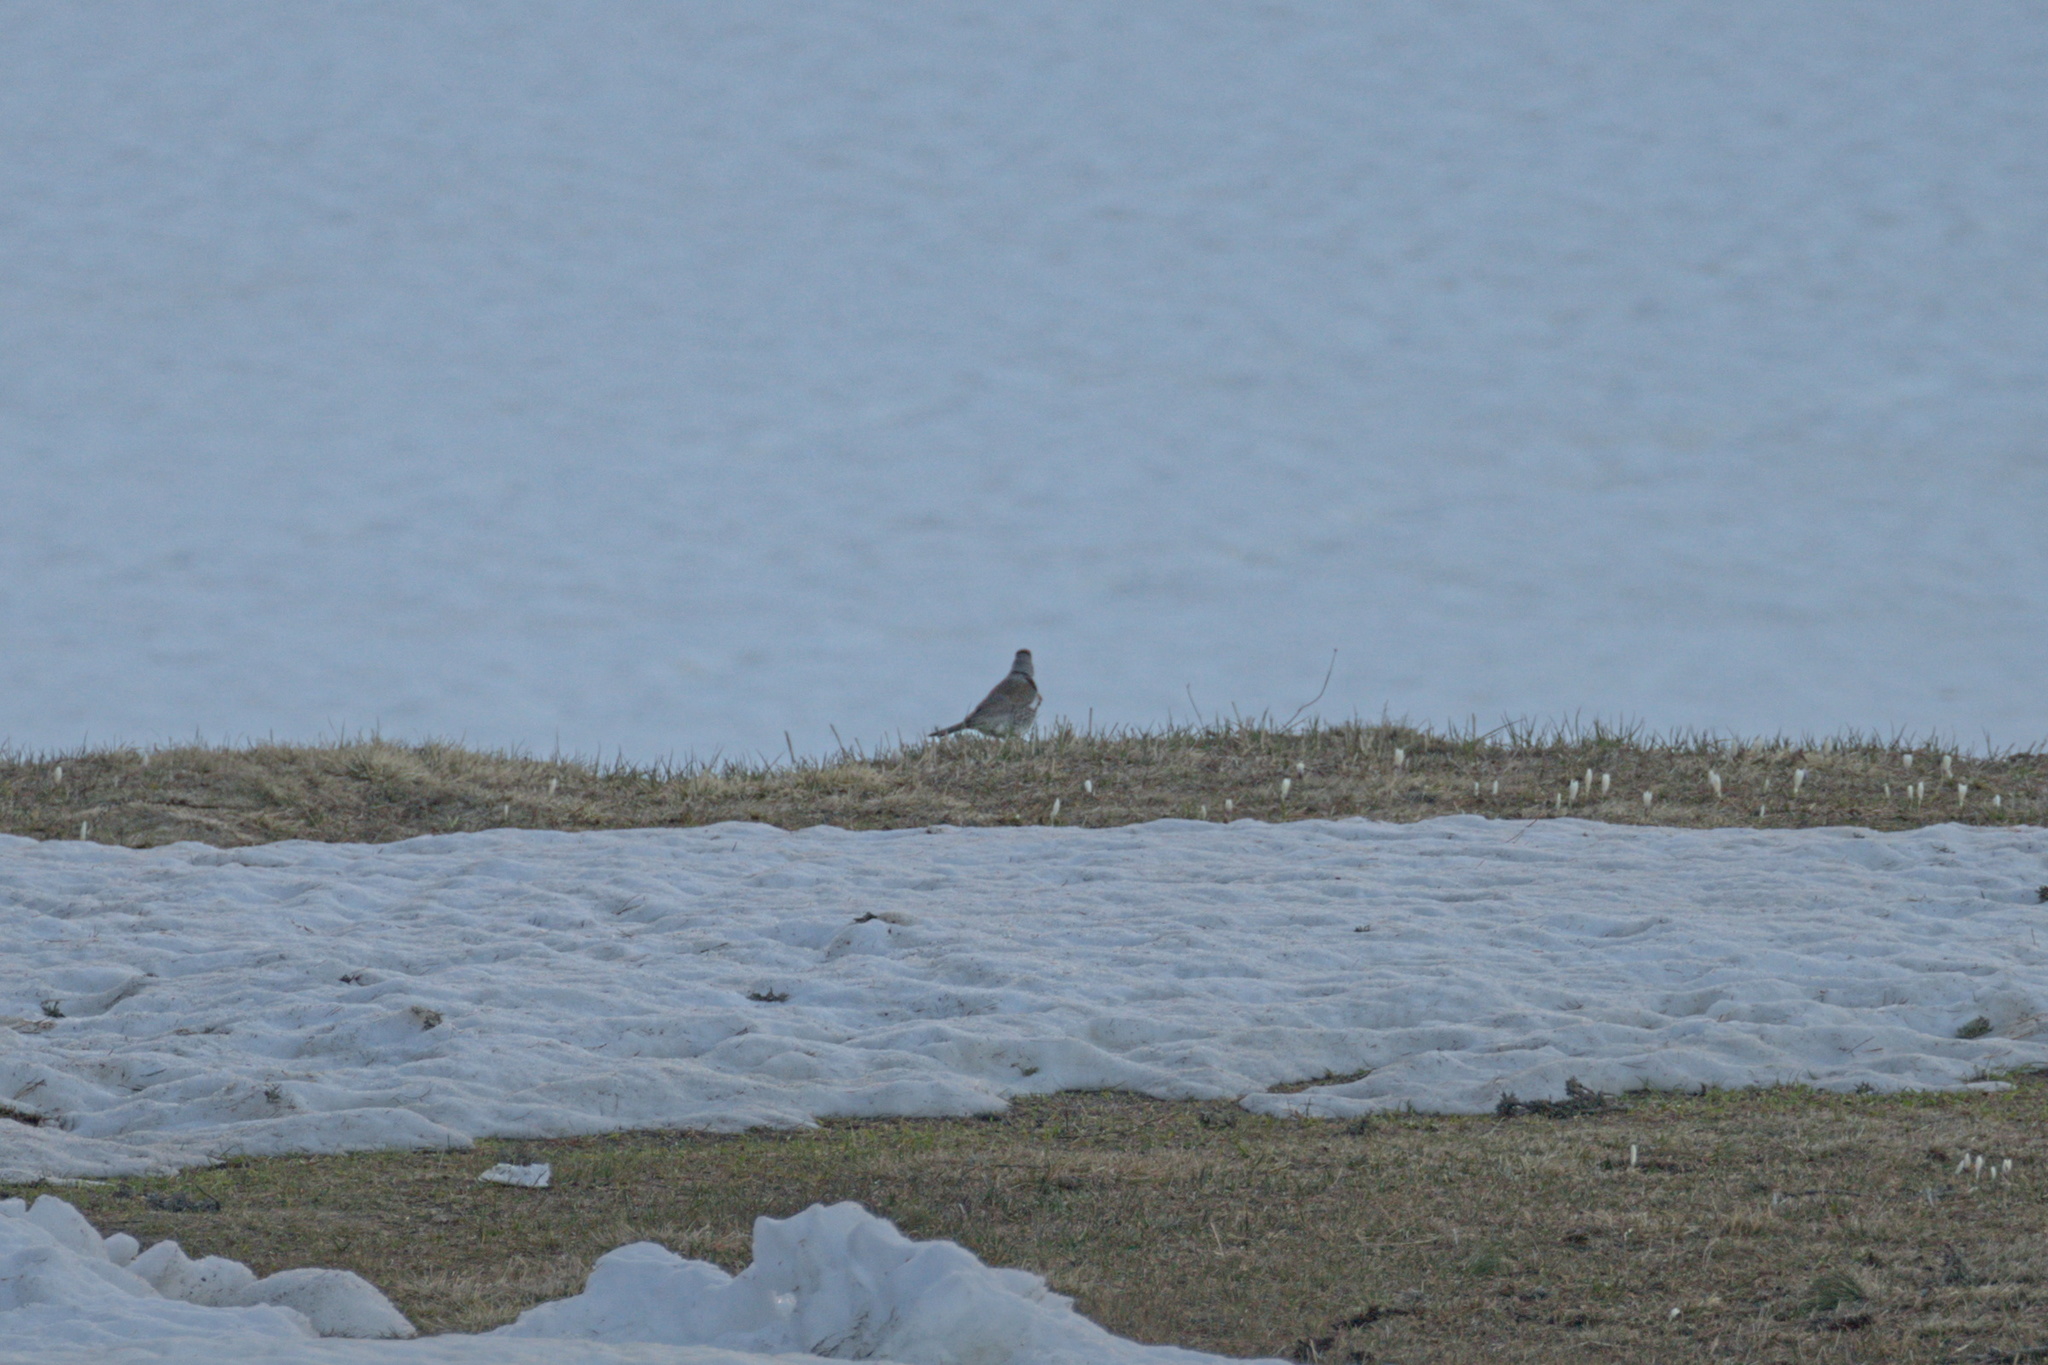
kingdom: Animalia
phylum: Chordata
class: Aves
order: Passeriformes
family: Turdidae
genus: Turdus
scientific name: Turdus pilaris
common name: Fieldfare
